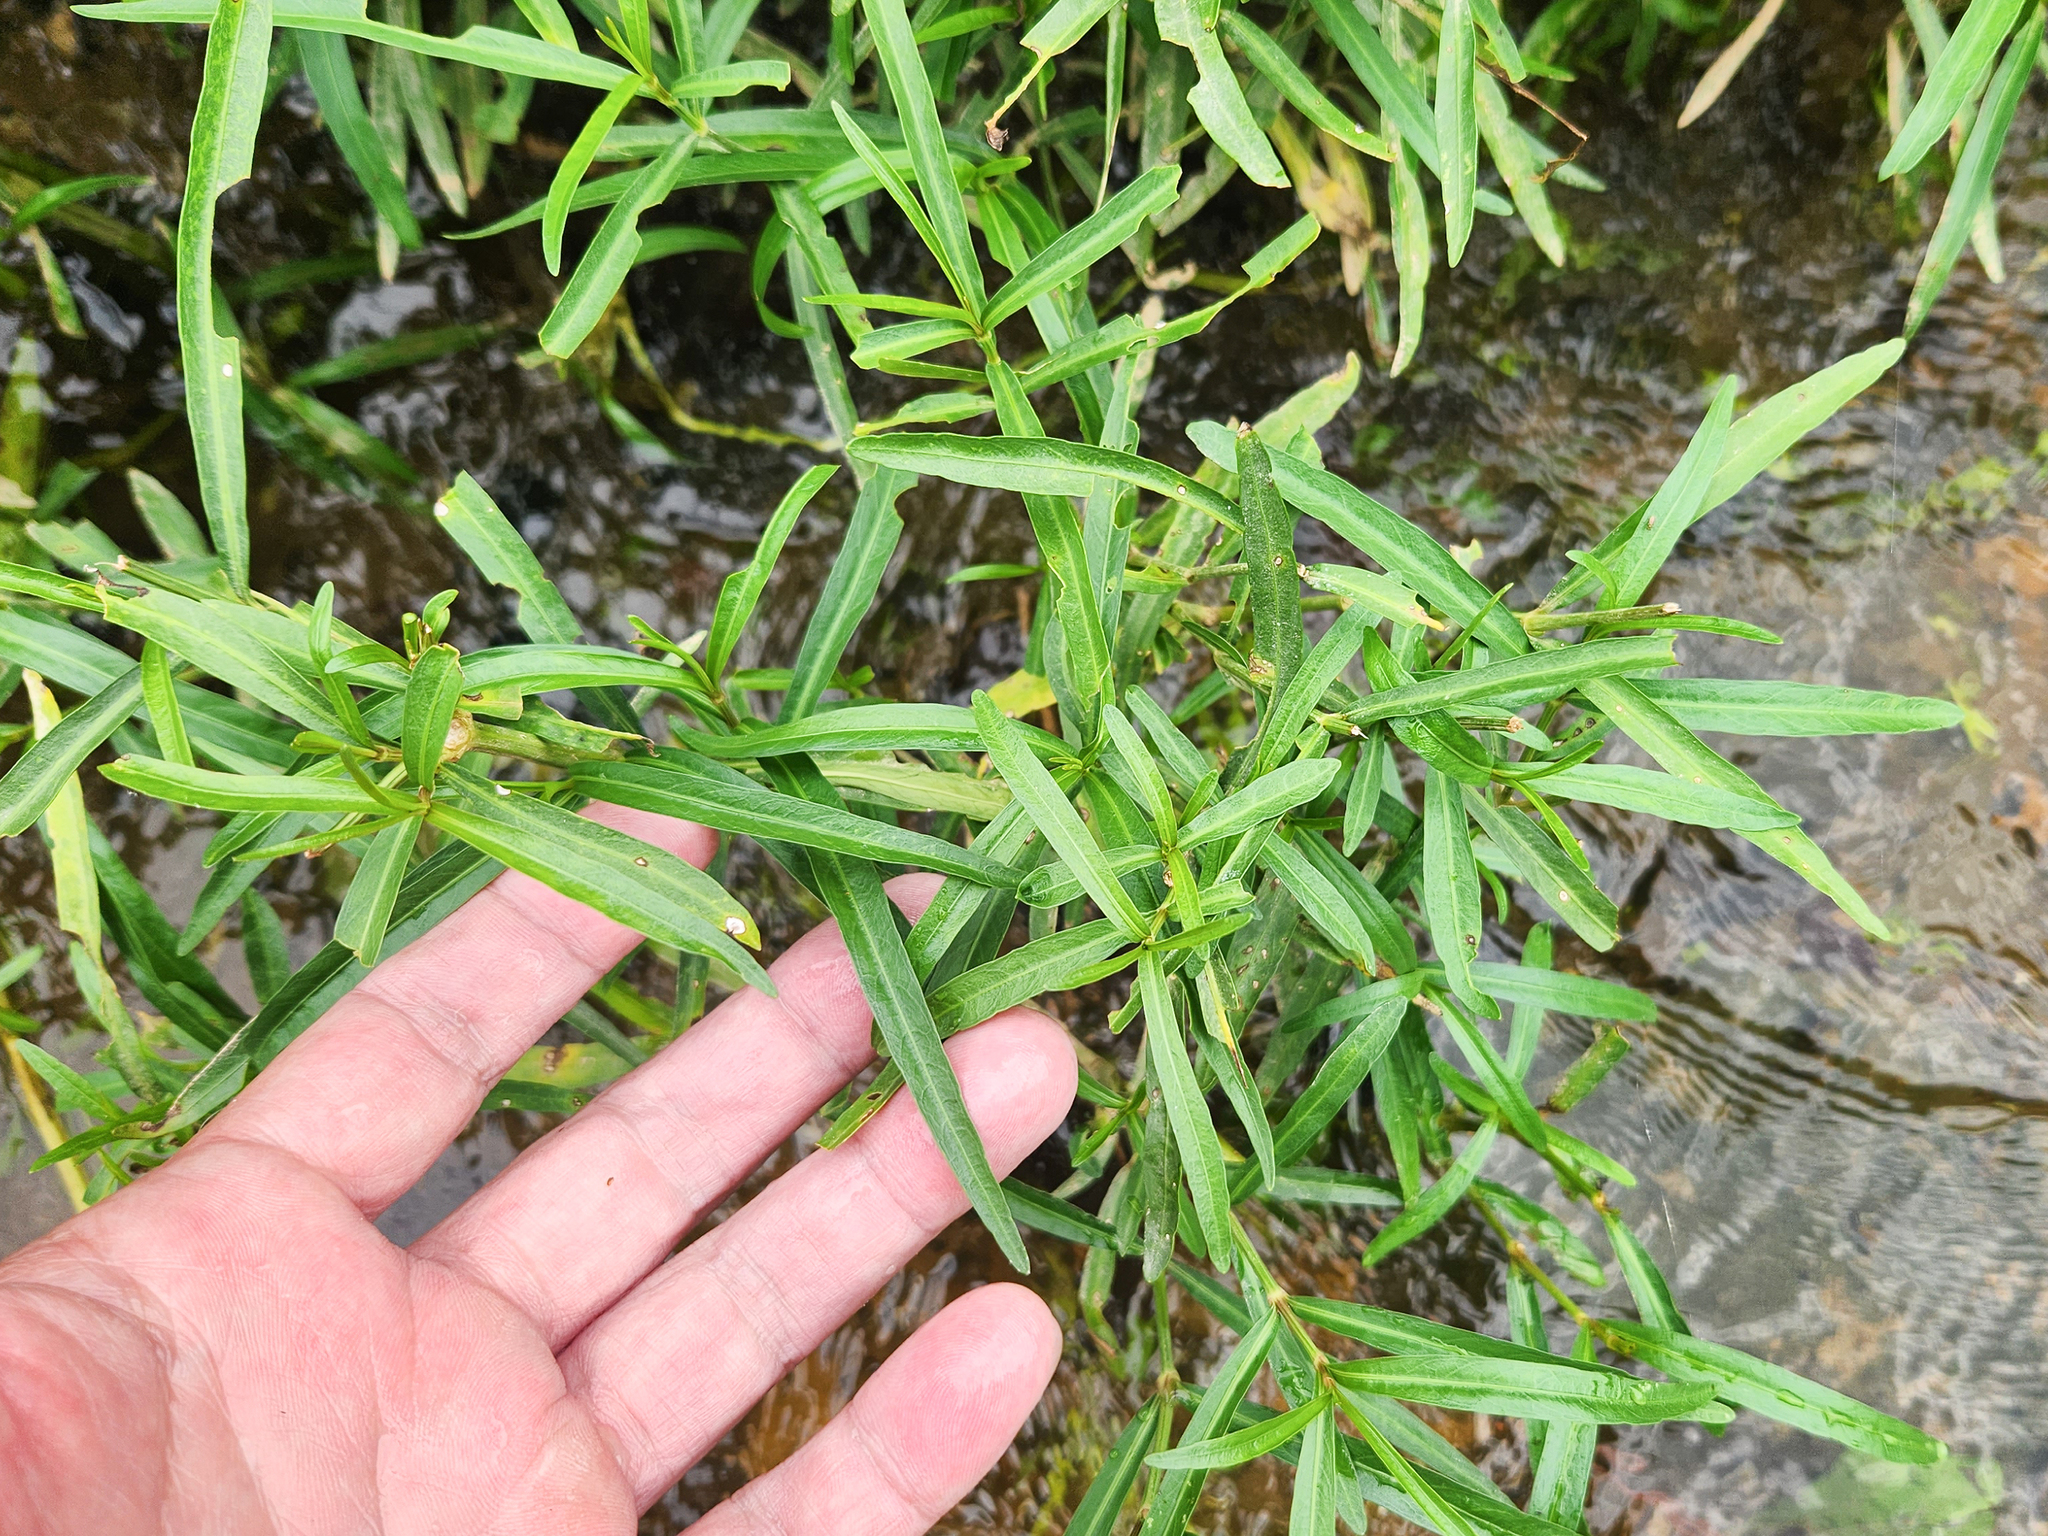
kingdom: Plantae
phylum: Tracheophyta
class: Magnoliopsida
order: Lamiales
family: Acanthaceae
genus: Dianthera
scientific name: Dianthera americana
